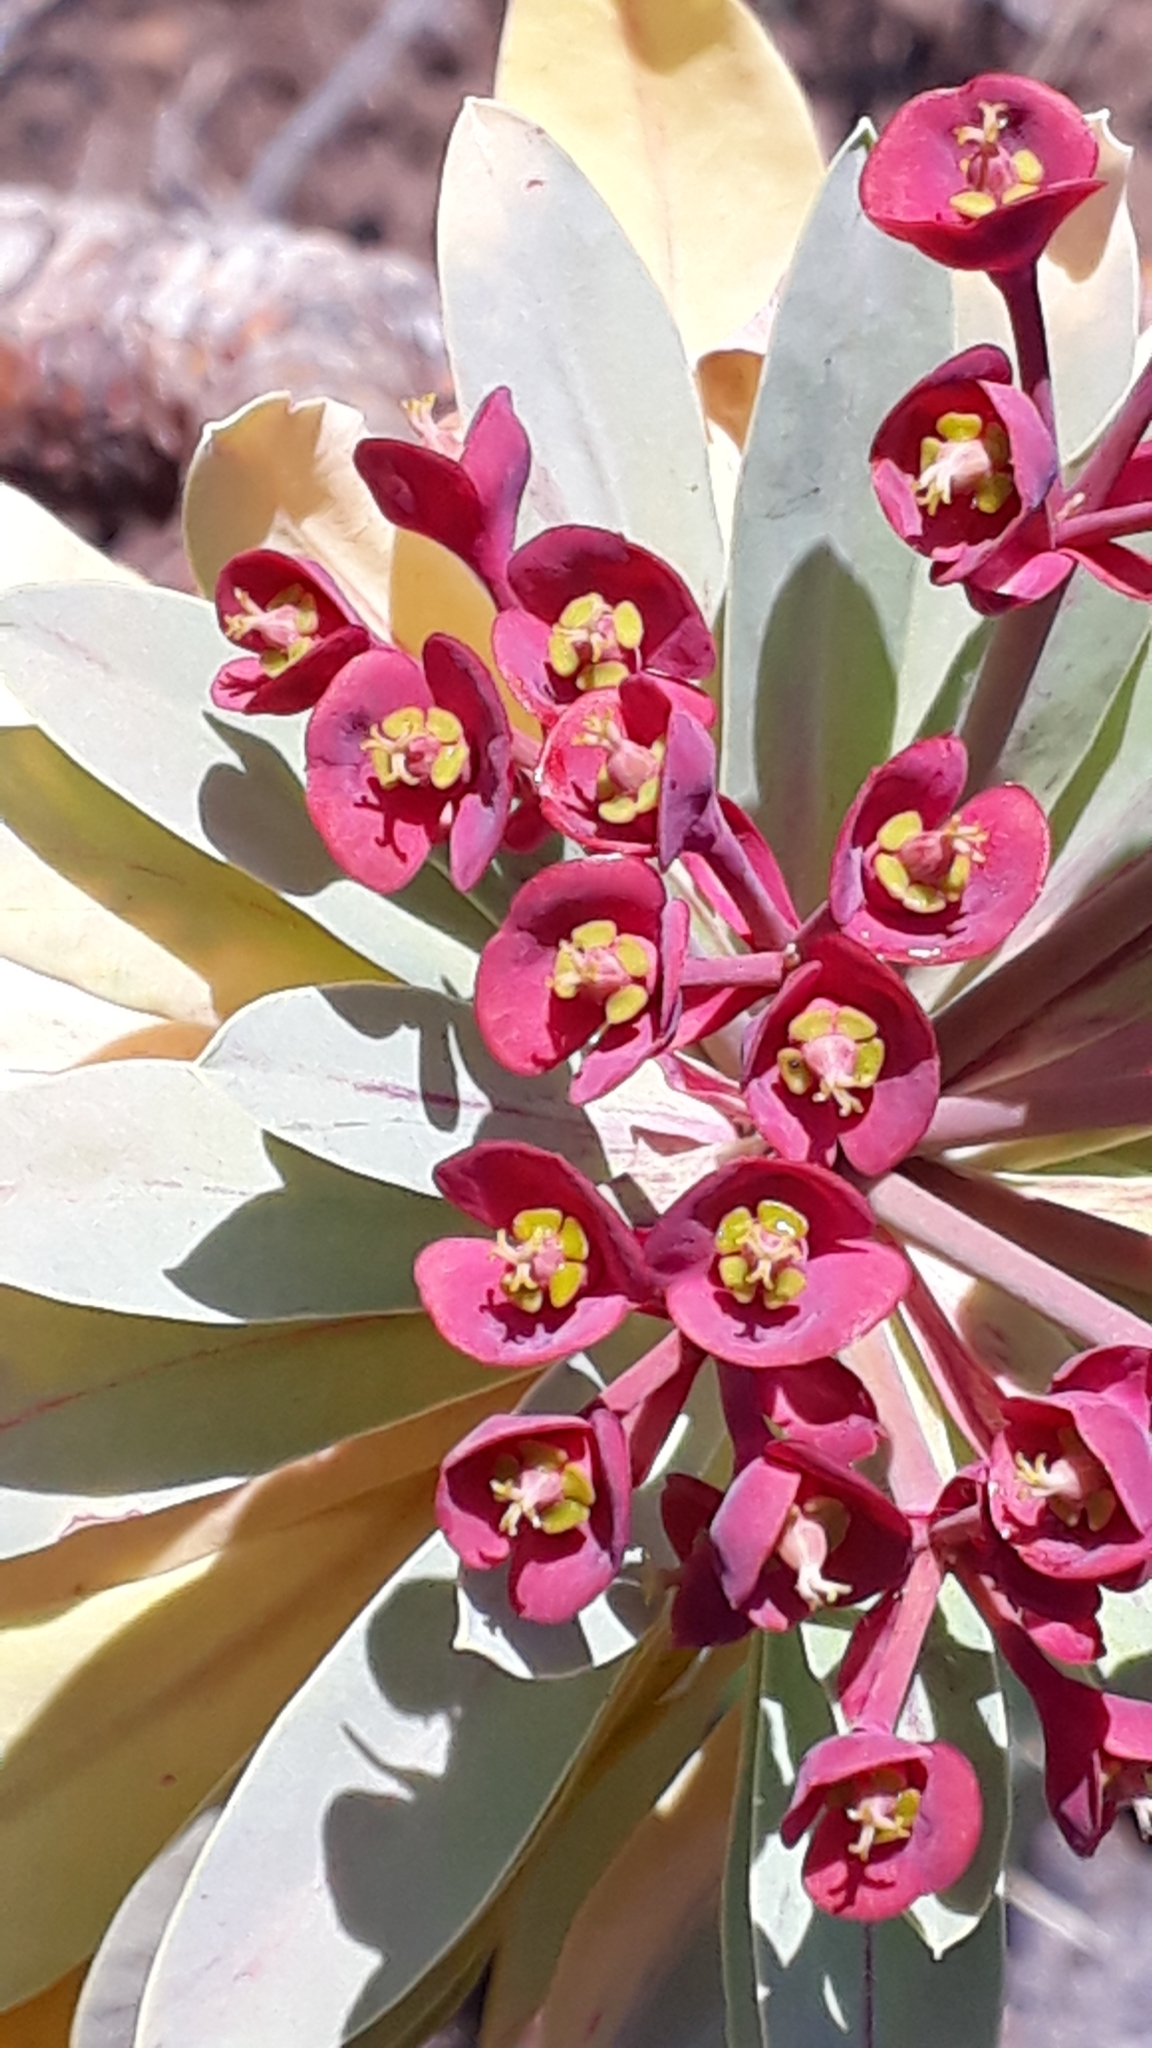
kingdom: Plantae
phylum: Tracheophyta
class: Magnoliopsida
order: Malpighiales
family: Euphorbiaceae
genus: Euphorbia
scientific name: Euphorbia atropurpurea
